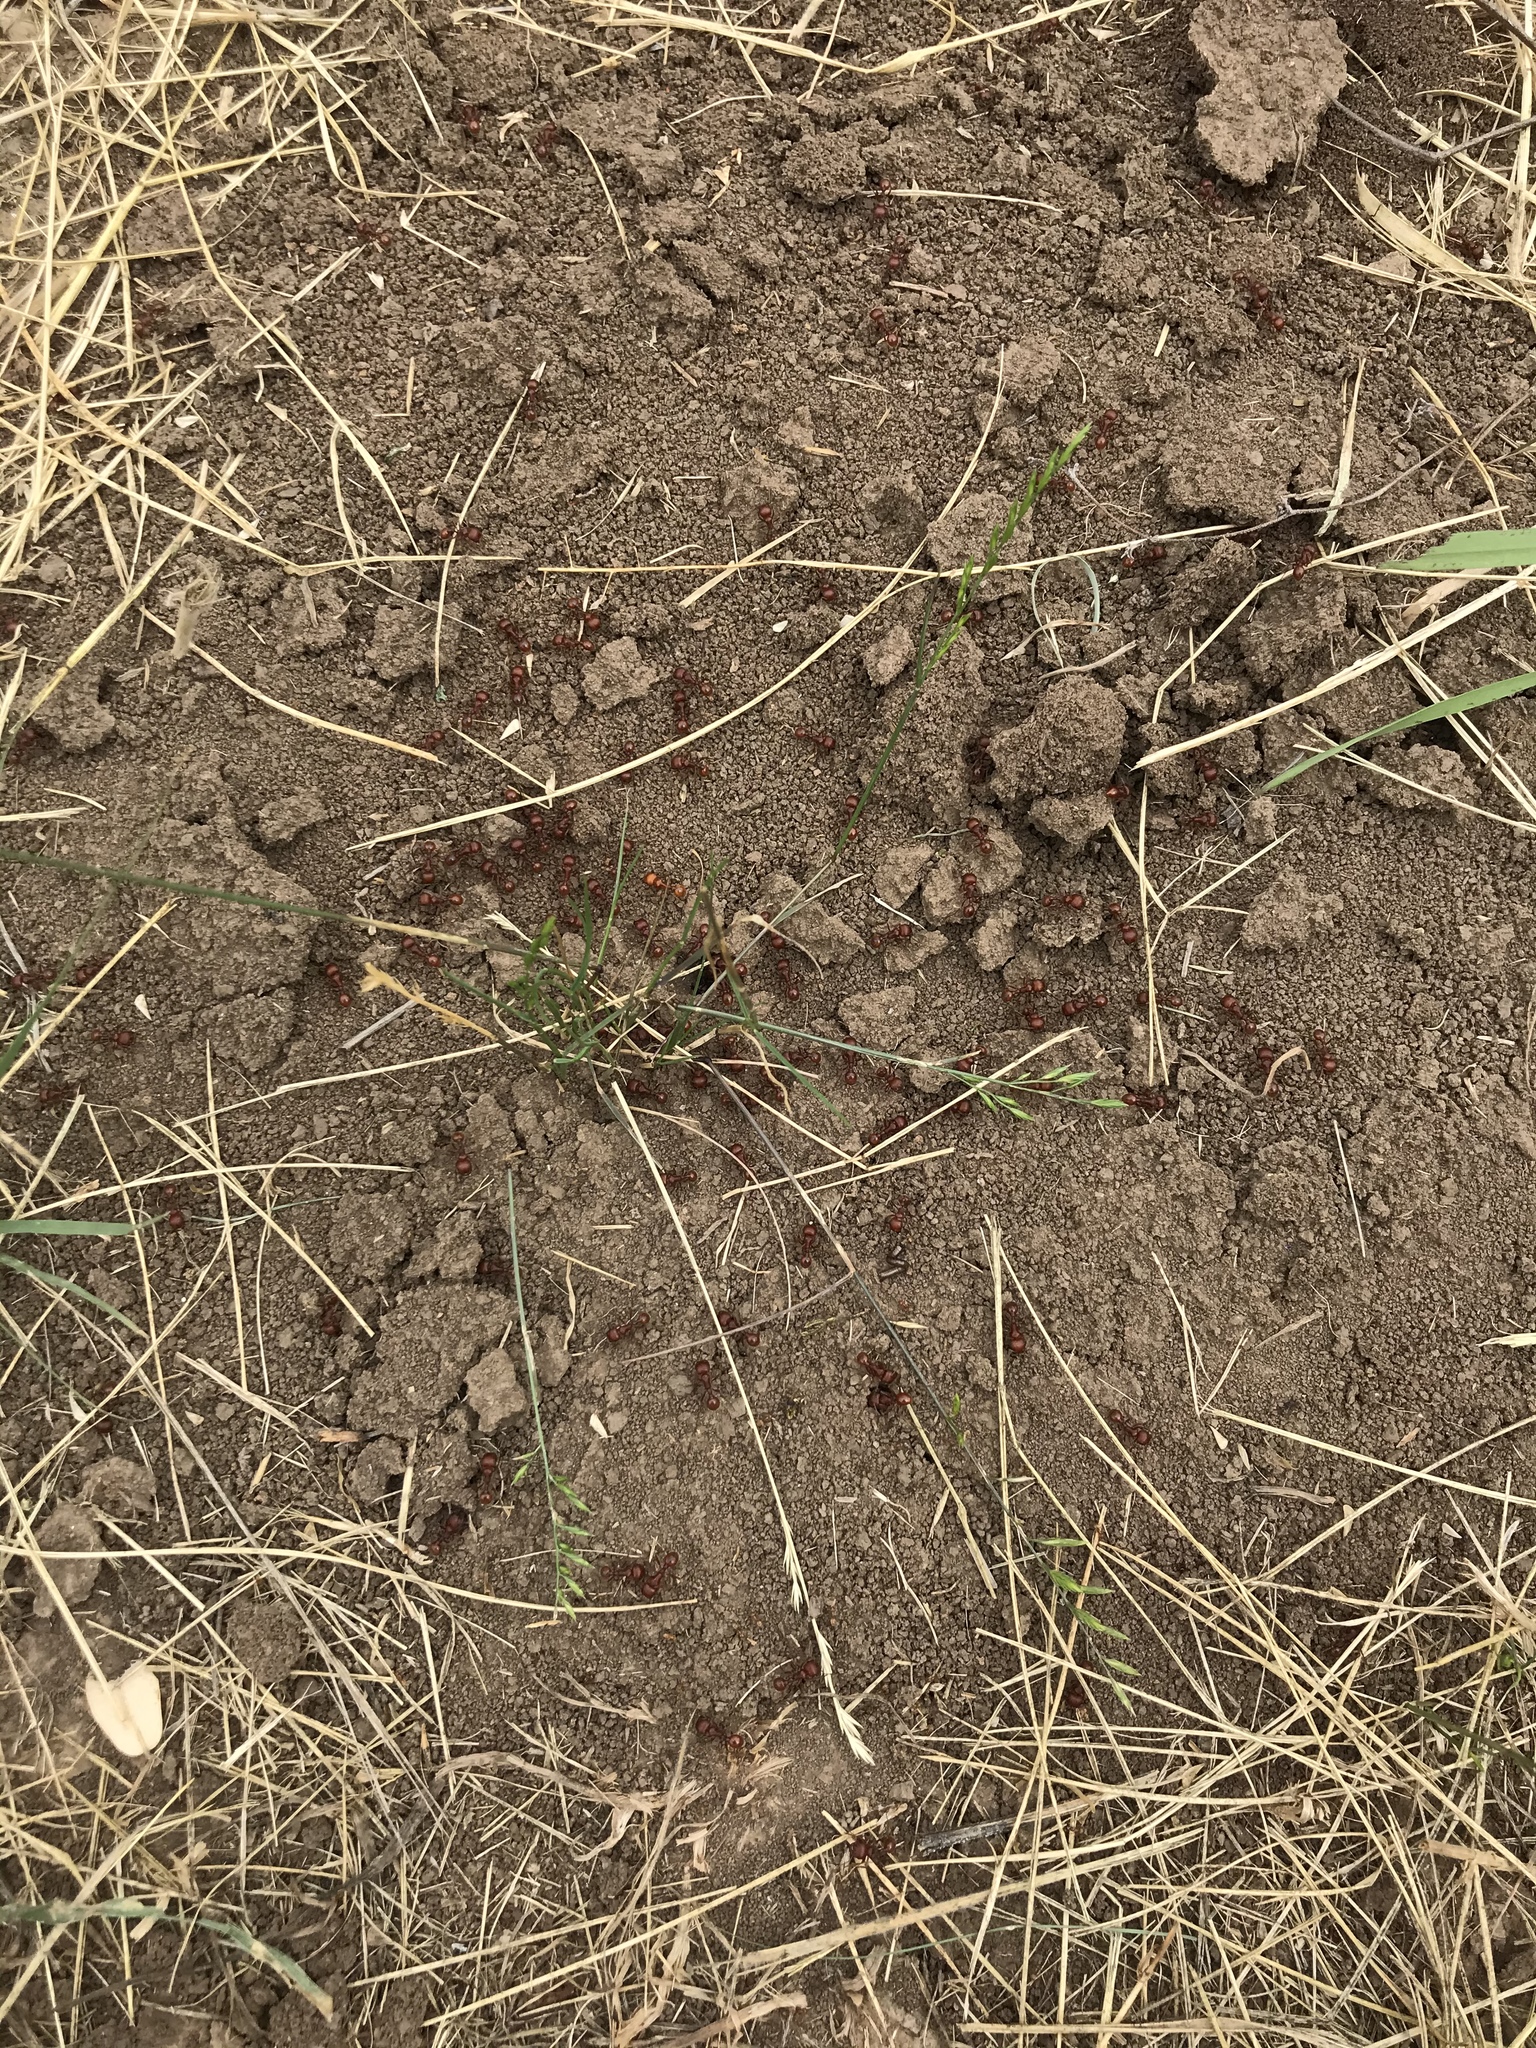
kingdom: Animalia
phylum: Arthropoda
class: Insecta
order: Hymenoptera
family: Formicidae
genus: Pogonomyrmex
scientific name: Pogonomyrmex barbatus
